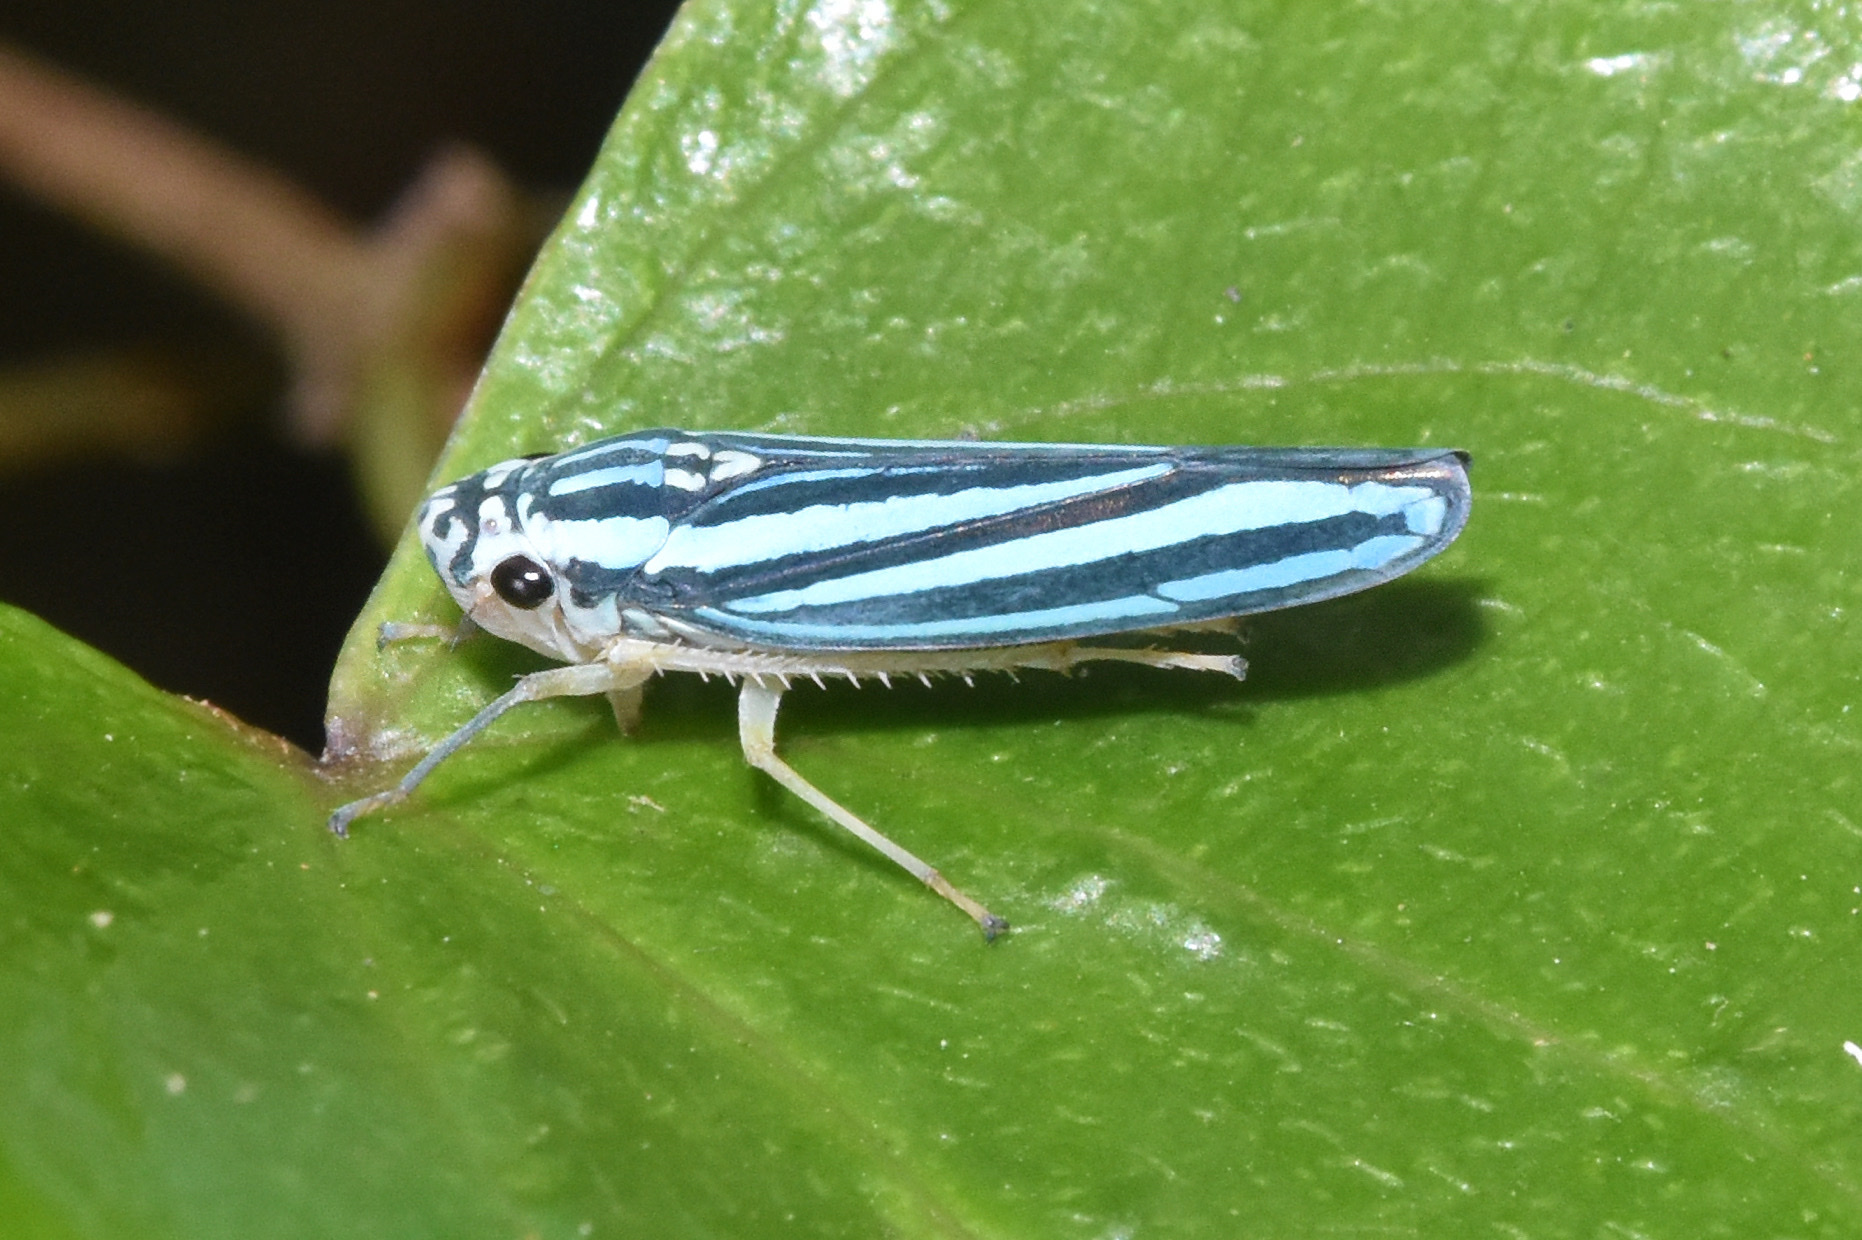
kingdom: Animalia
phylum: Arthropoda
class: Insecta
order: Hemiptera
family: Cicadellidae
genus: Tettigoniella
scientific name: Tettigoniella cosmopolita
